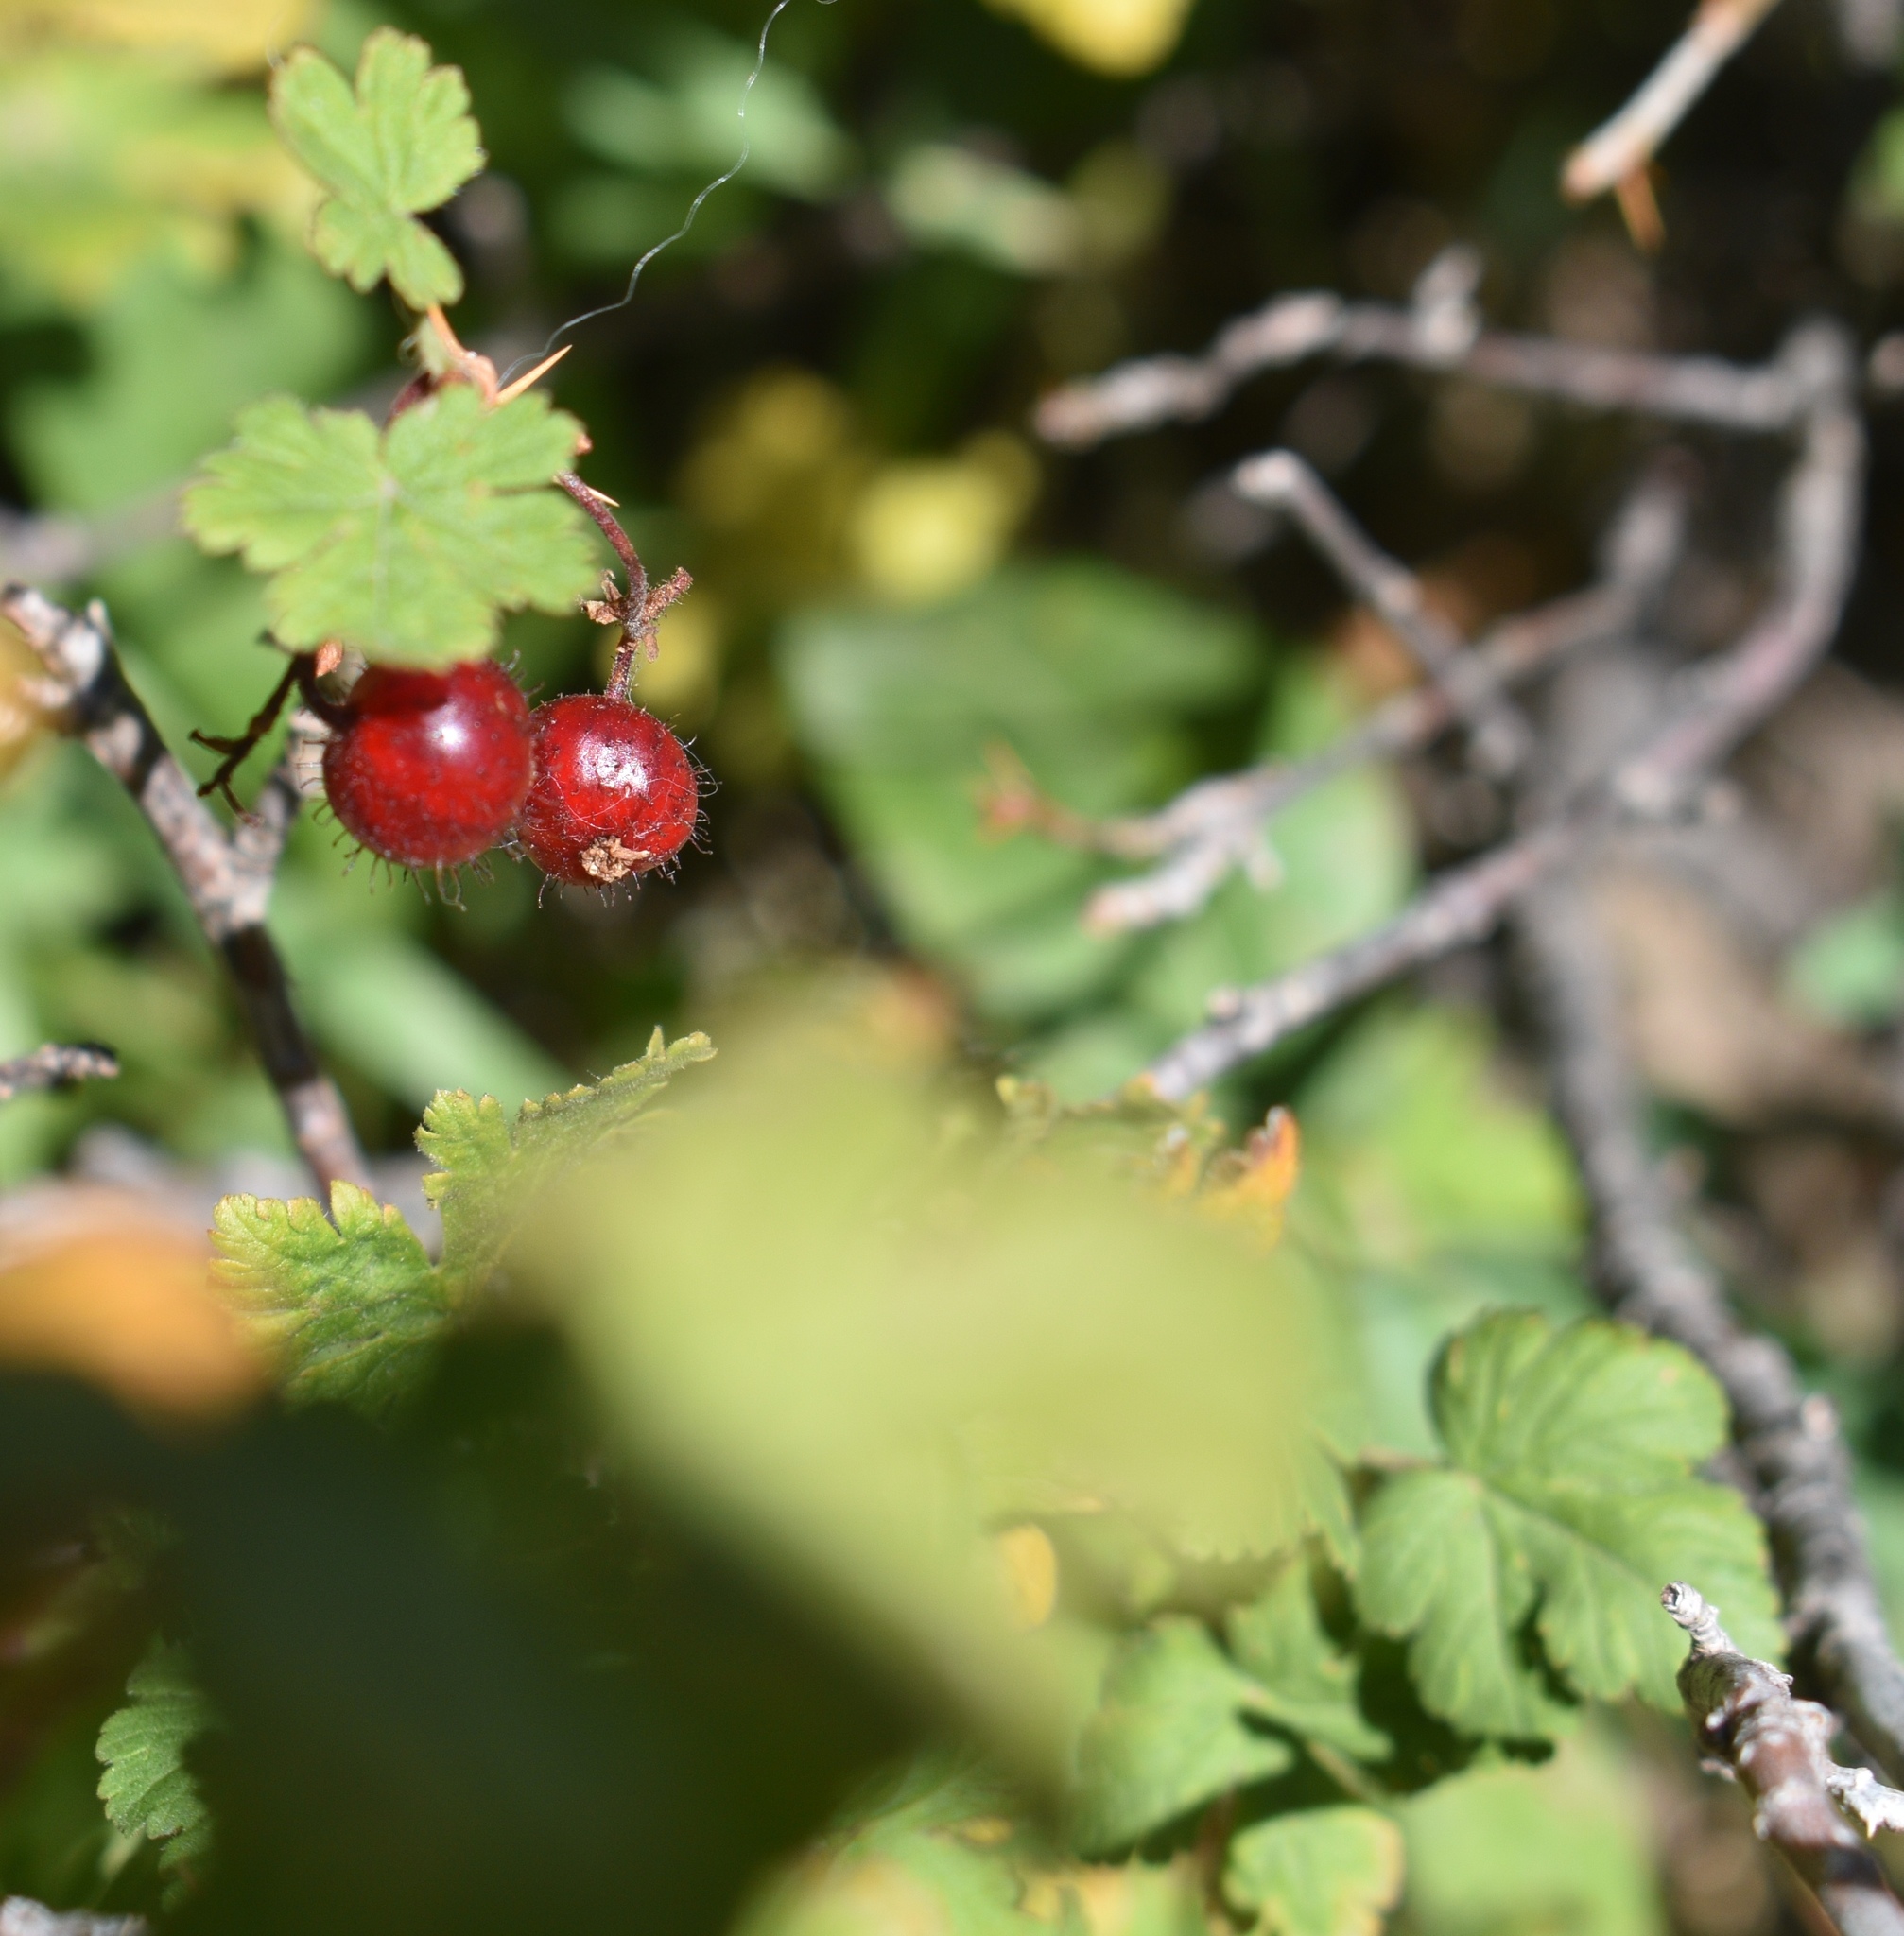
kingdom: Plantae
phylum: Tracheophyta
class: Magnoliopsida
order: Saxifragales
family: Grossulariaceae
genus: Ribes
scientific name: Ribes montigenum
